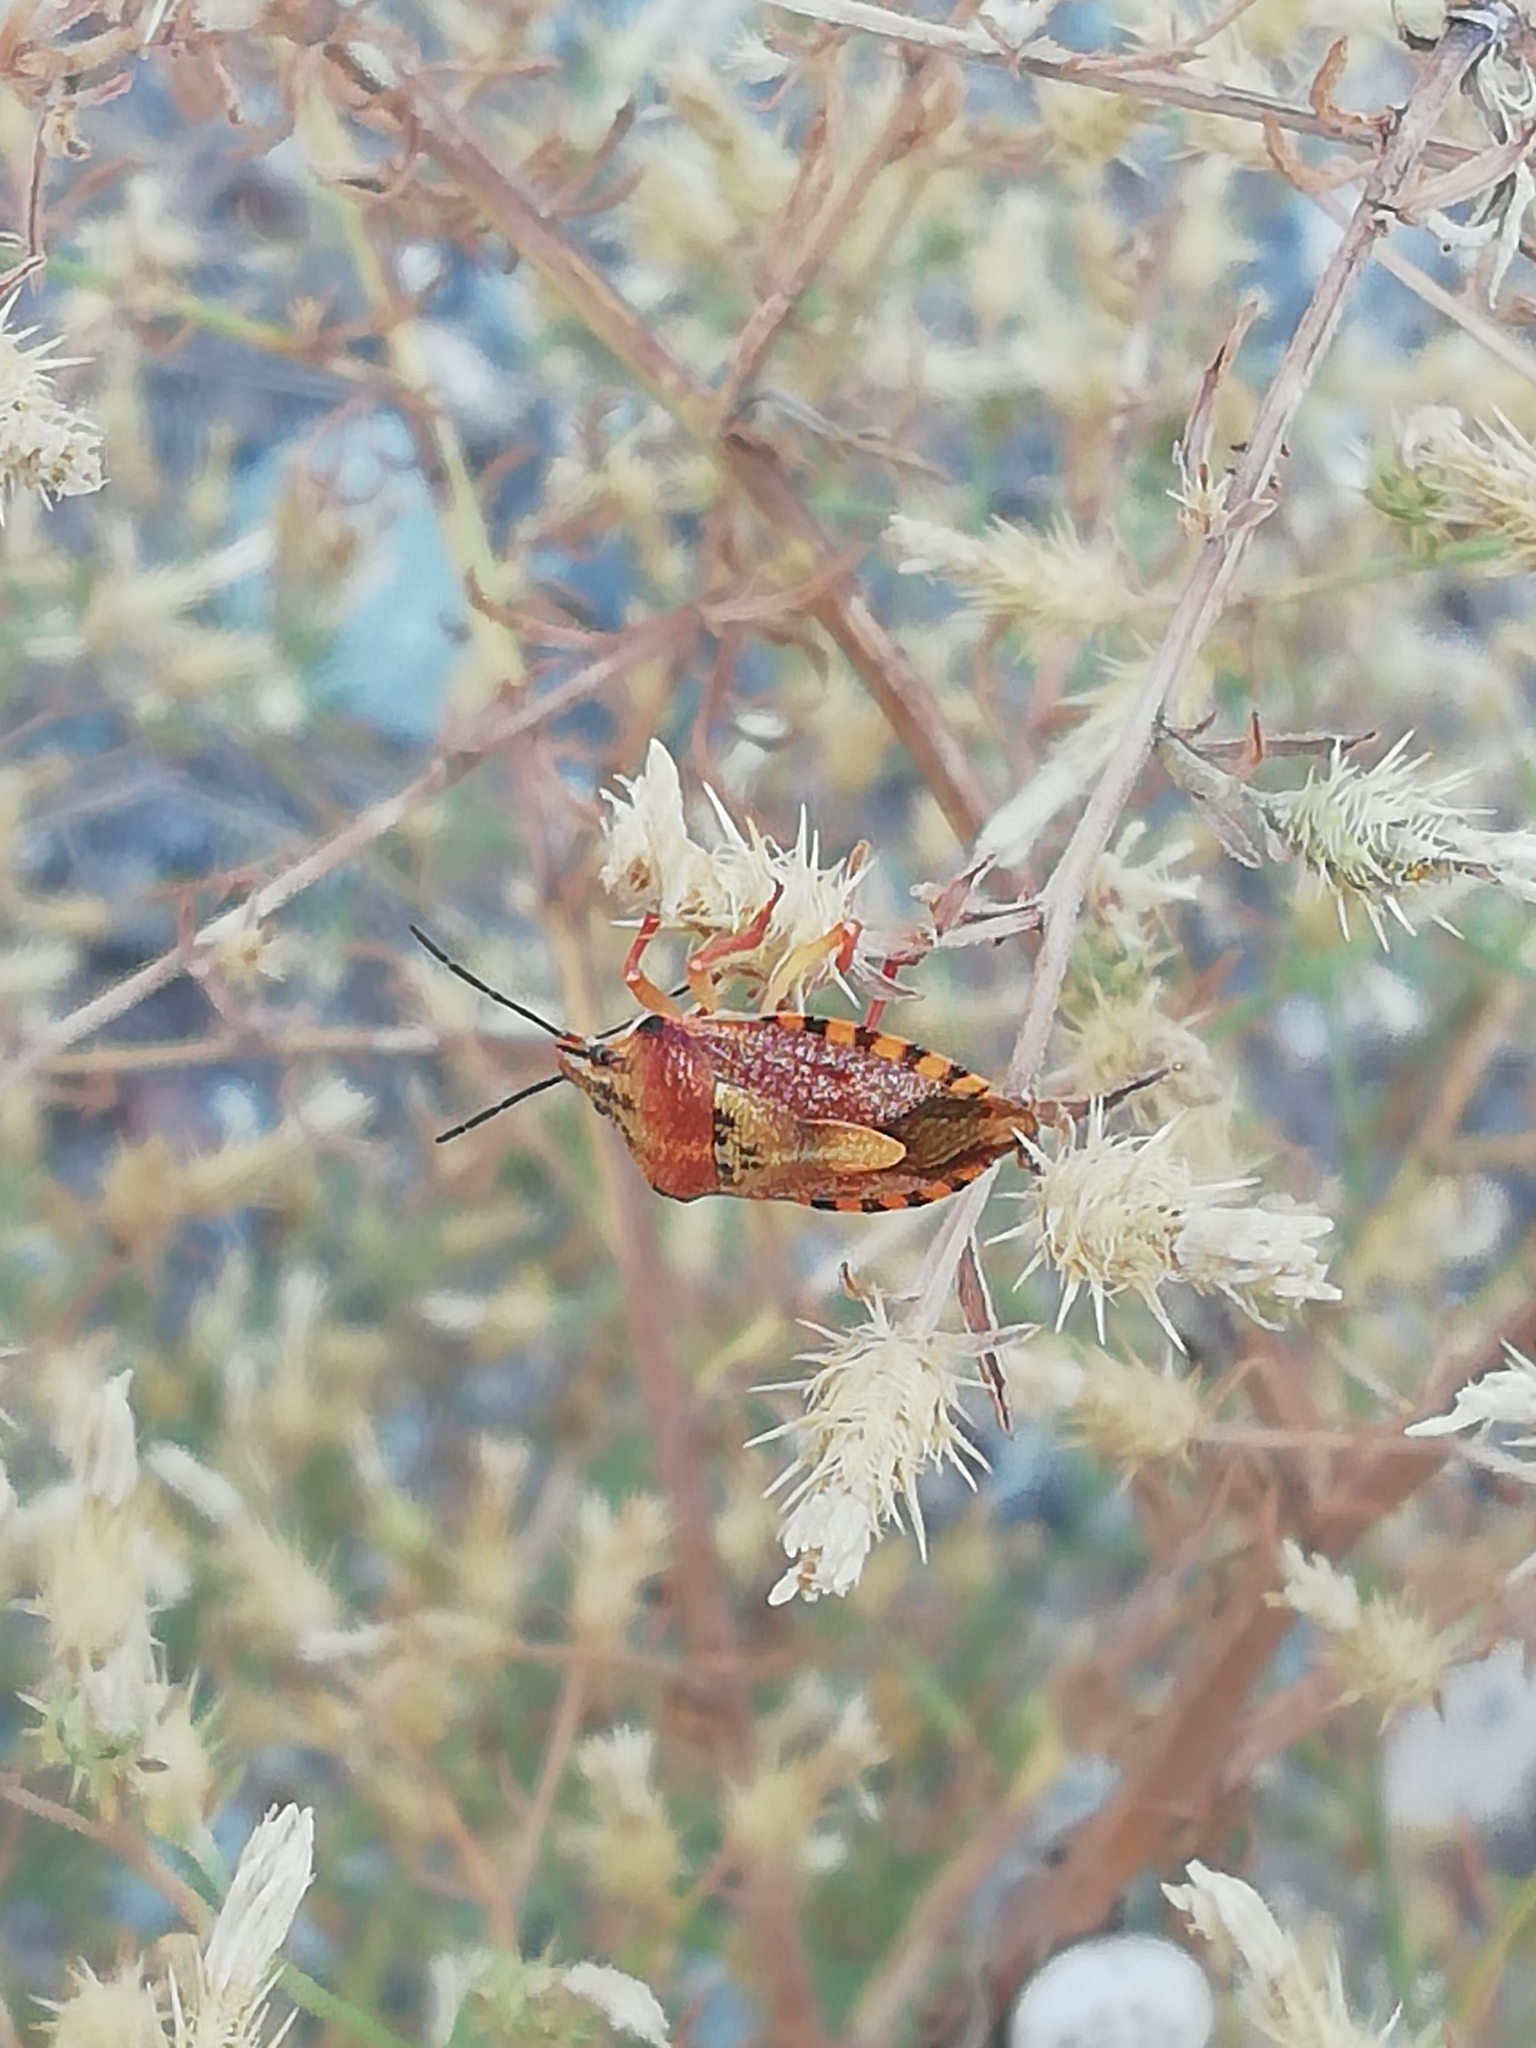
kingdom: Animalia
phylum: Arthropoda
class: Insecta
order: Hemiptera
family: Pentatomidae
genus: Carpocoris
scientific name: Carpocoris purpureipennis
